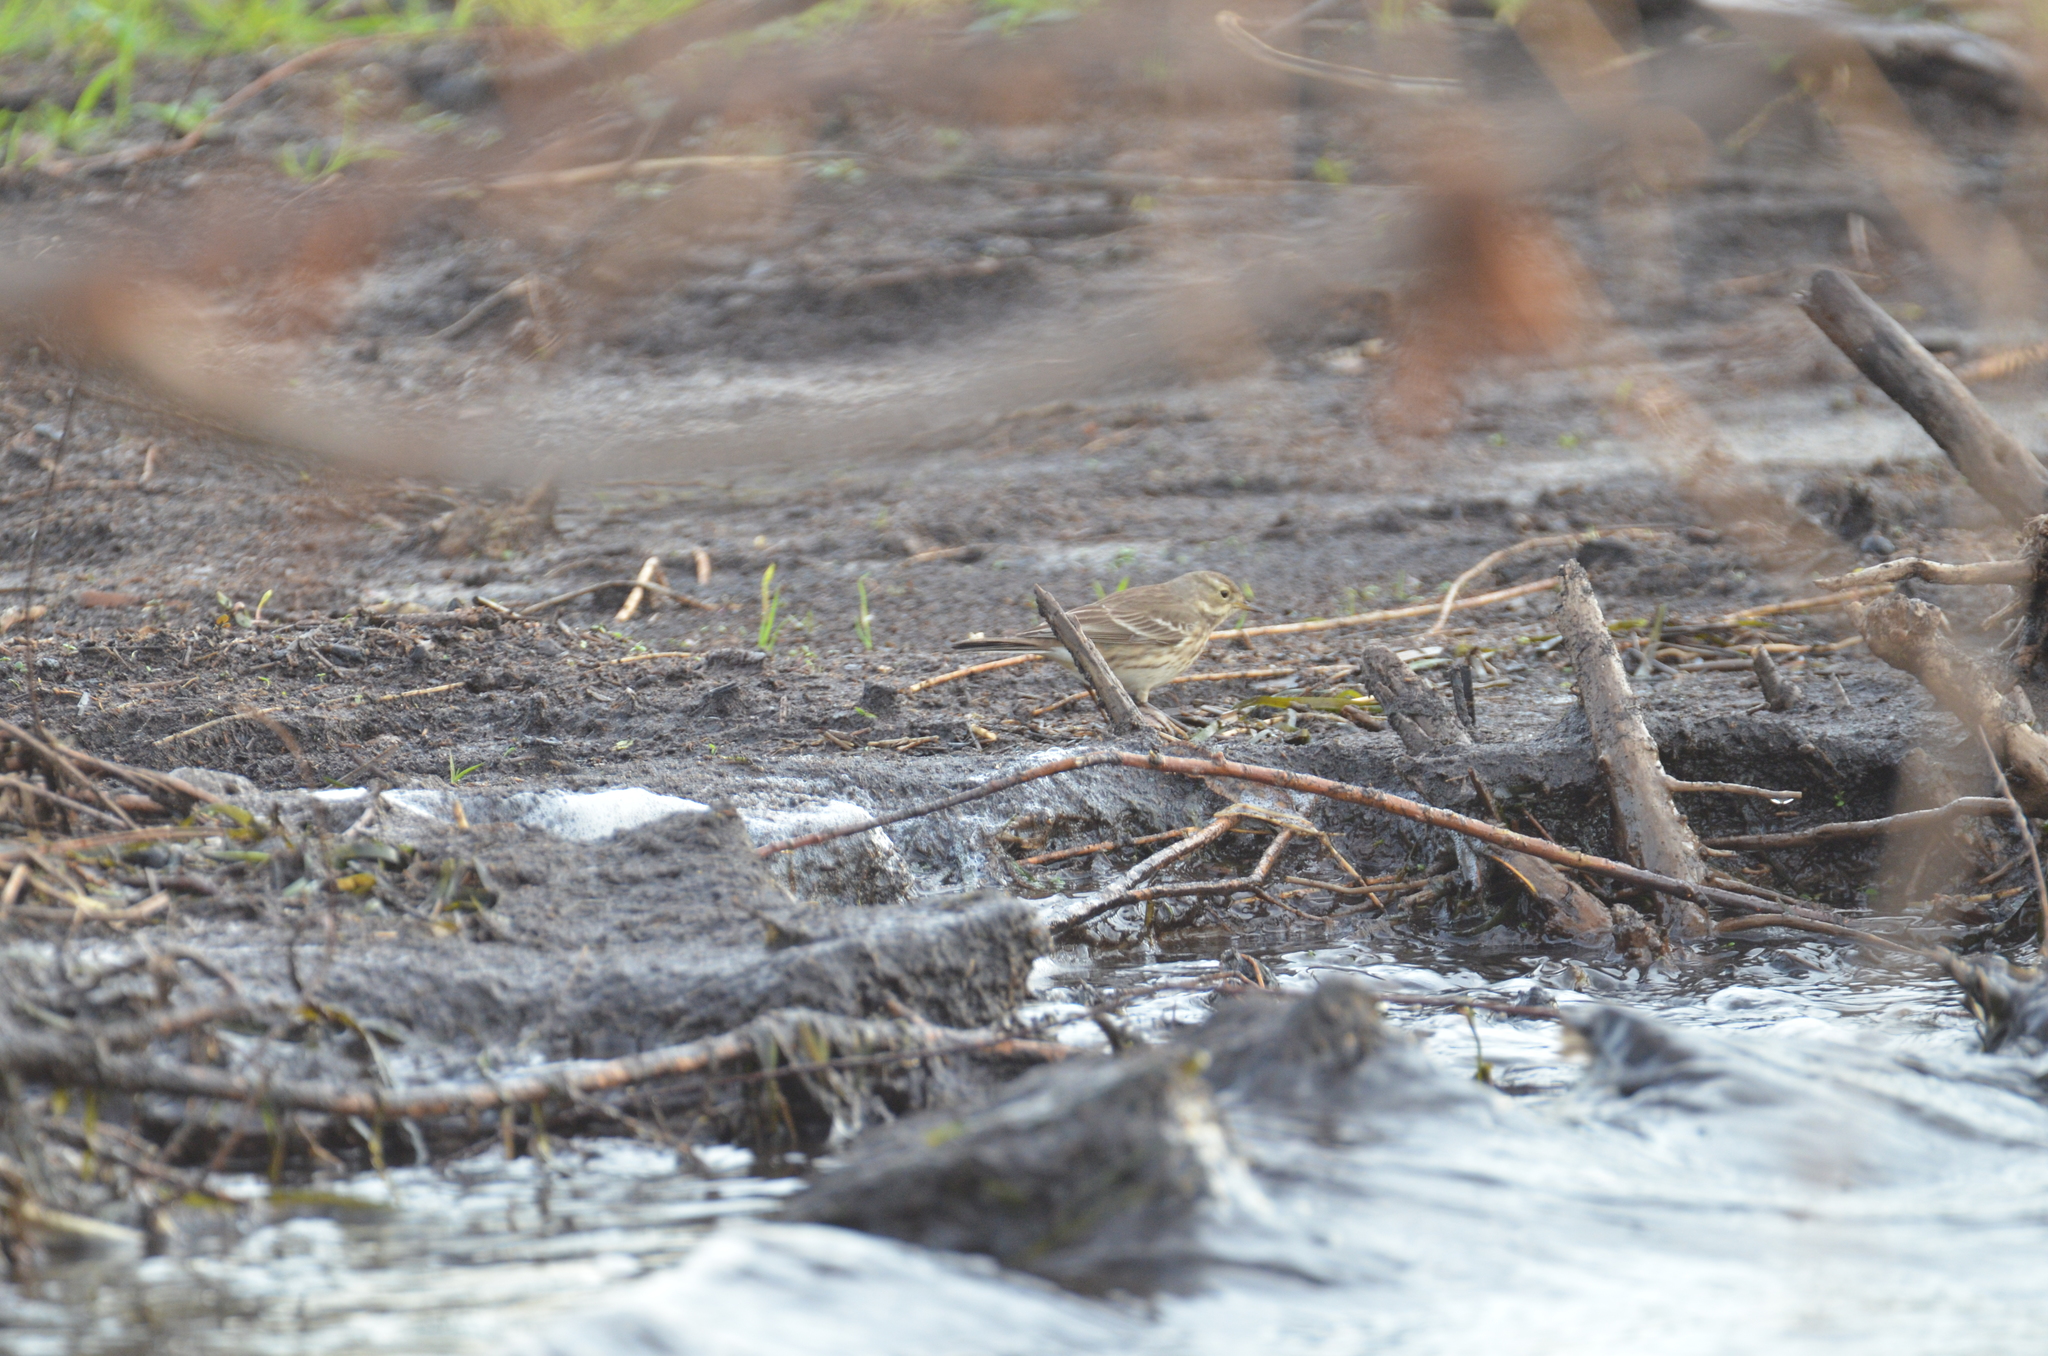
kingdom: Animalia
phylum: Chordata
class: Aves
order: Passeriformes
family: Motacillidae
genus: Anthus
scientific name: Anthus rubescens
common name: Buff-bellied pipit
